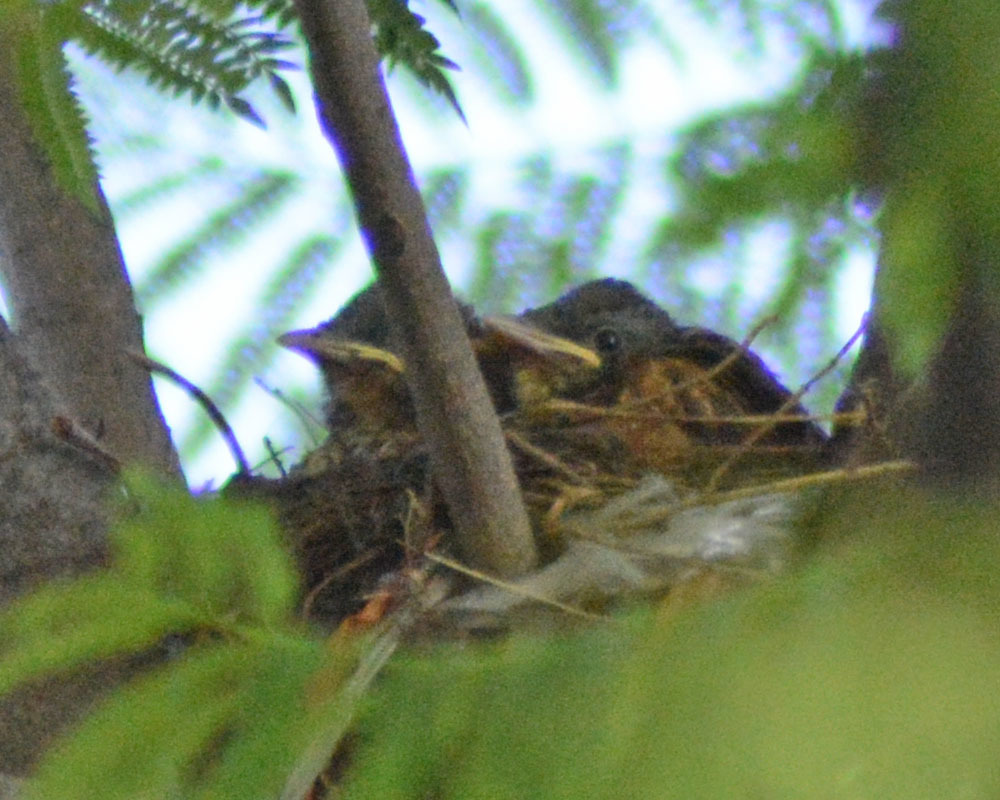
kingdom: Animalia
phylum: Chordata
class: Aves
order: Passeriformes
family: Turdidae
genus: Turdus
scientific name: Turdus rufopalliatus
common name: Rufous-backed robin
